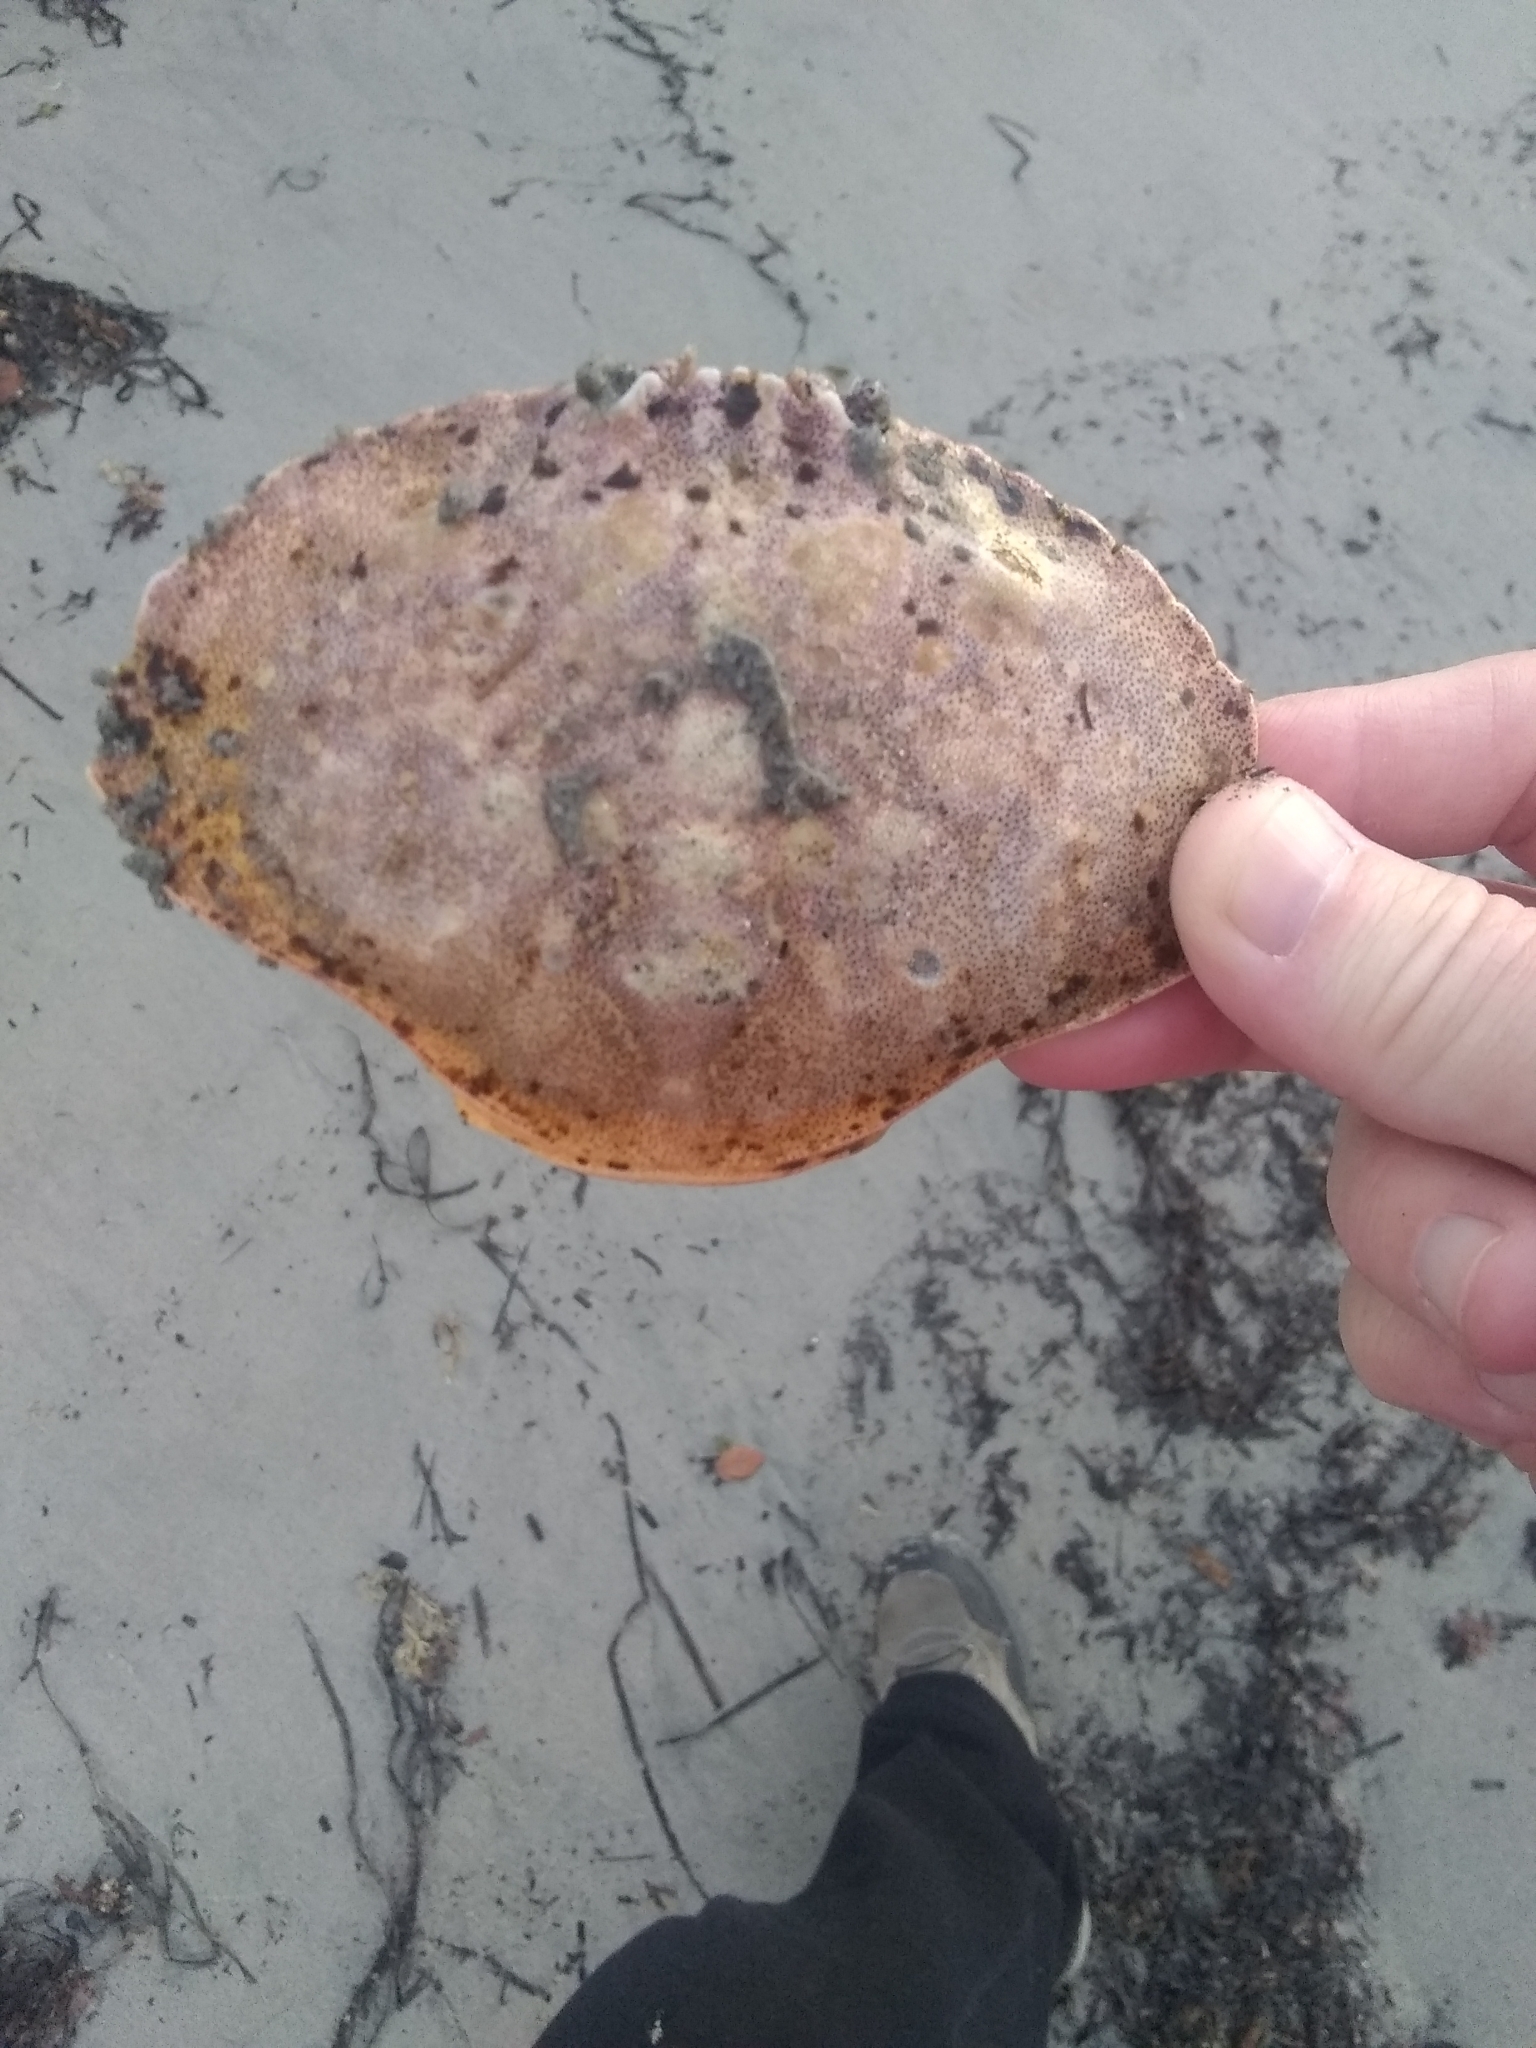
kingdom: Animalia
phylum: Arthropoda
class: Malacostraca
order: Decapoda
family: Cancridae
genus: Cancer
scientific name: Cancer irroratus
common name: Atlantic rock crab
